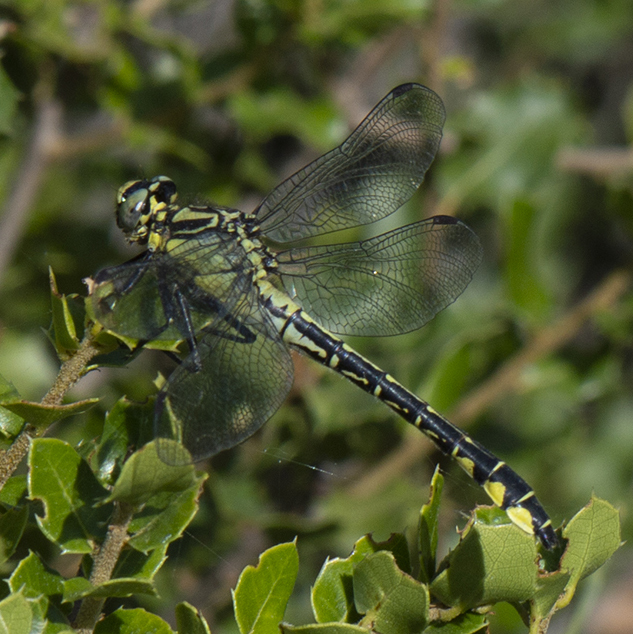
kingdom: Animalia
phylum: Arthropoda
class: Insecta
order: Odonata
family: Gomphidae
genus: Gomphus
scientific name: Gomphus vulgatissimus
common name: Club-tailed dragonfly
